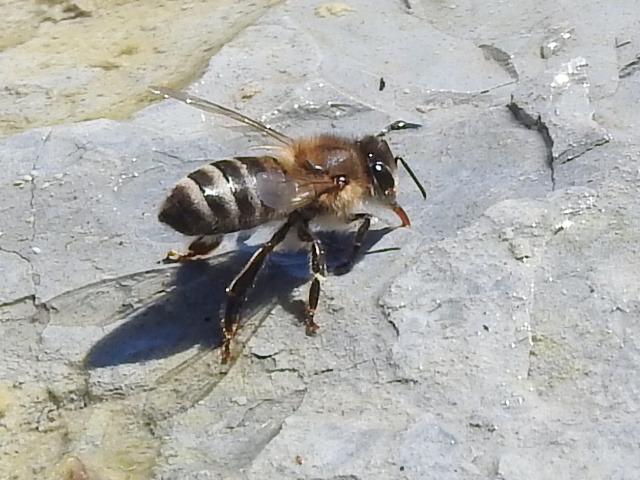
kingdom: Animalia
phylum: Arthropoda
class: Insecta
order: Hymenoptera
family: Apidae
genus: Apis
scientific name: Apis mellifera
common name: Honey bee
